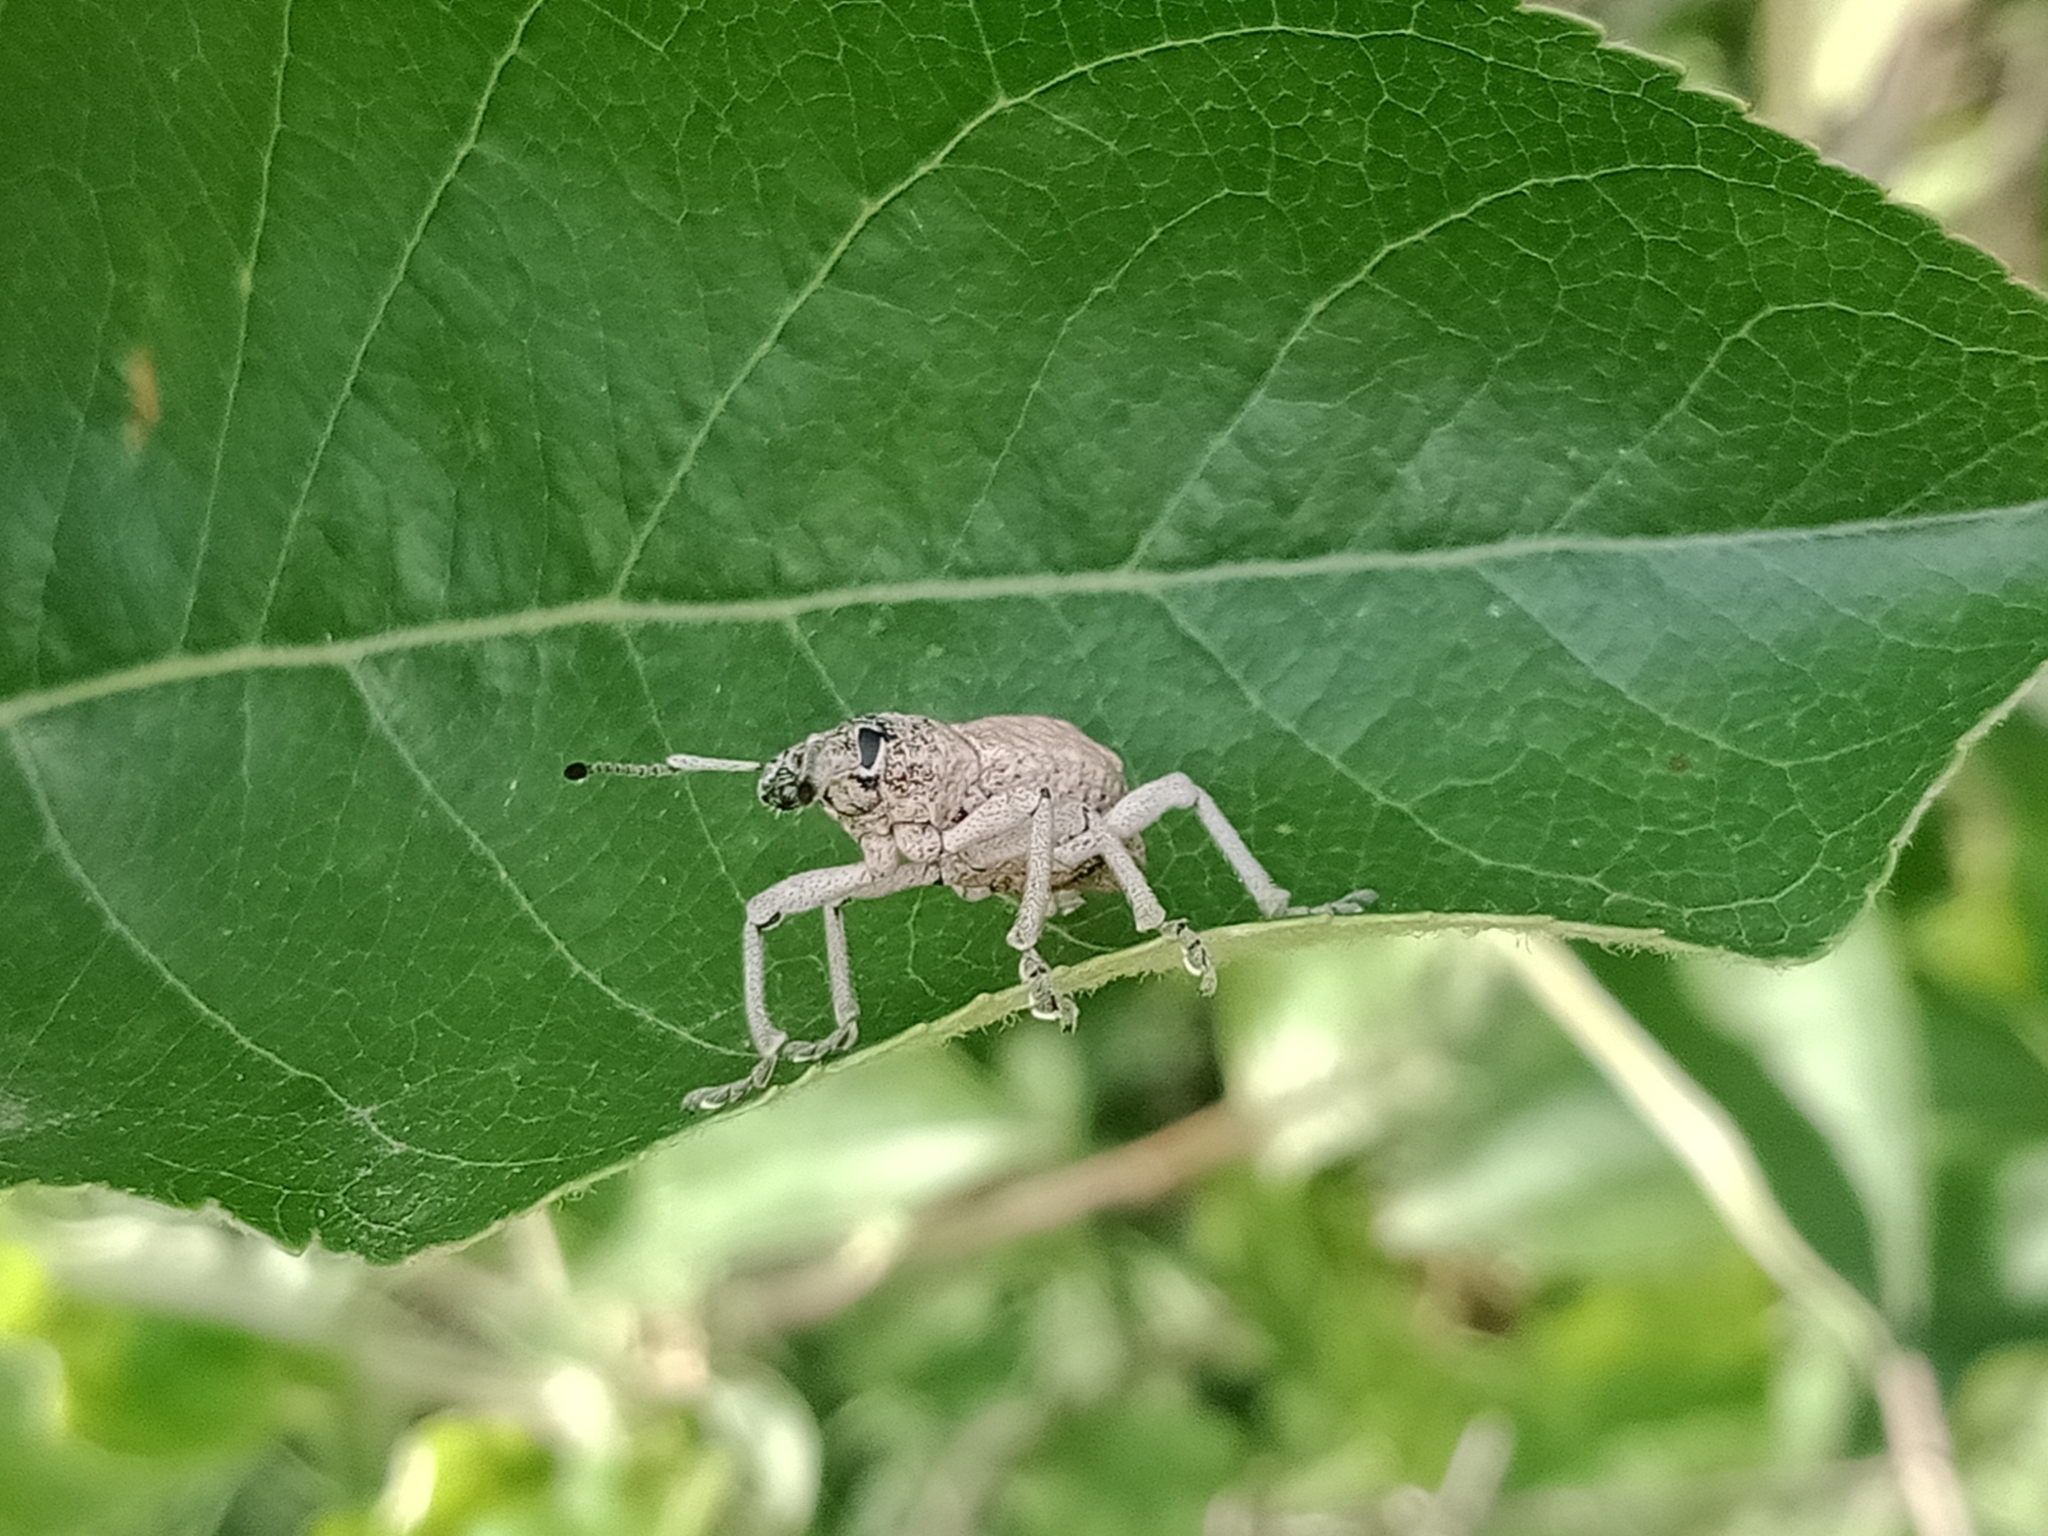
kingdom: Animalia
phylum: Arthropoda
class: Insecta
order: Coleoptera
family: Curculionidae
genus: Leptopius
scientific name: Leptopius robustus
